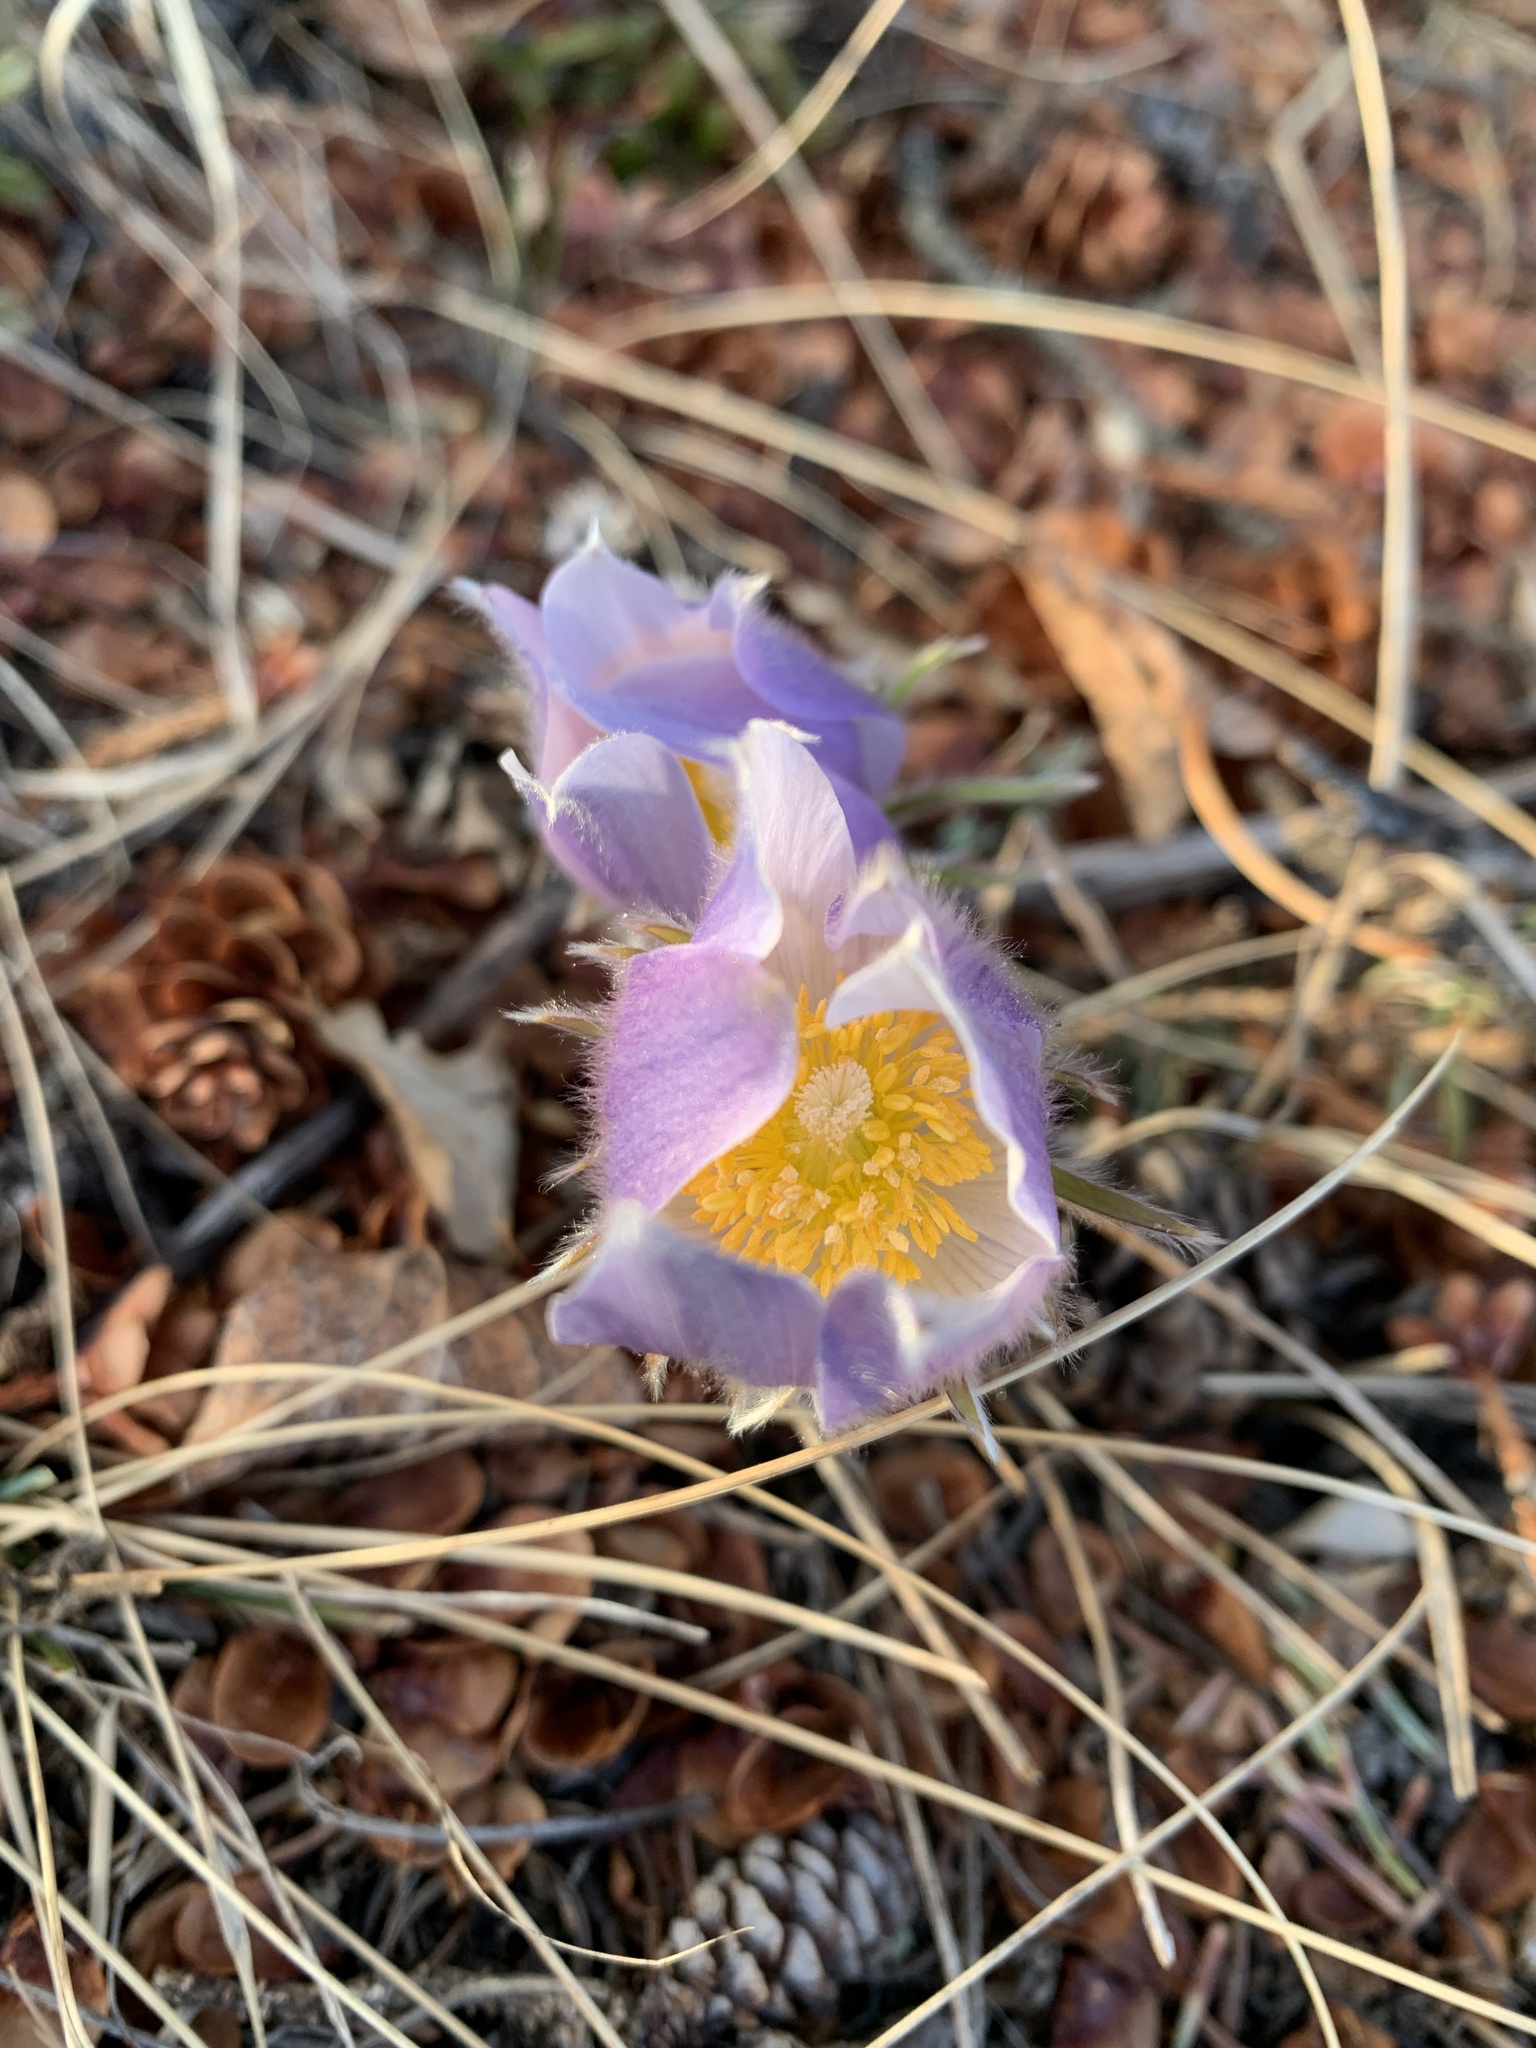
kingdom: Plantae
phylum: Tracheophyta
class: Magnoliopsida
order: Ranunculales
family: Ranunculaceae
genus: Pulsatilla
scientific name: Pulsatilla nuttalliana
